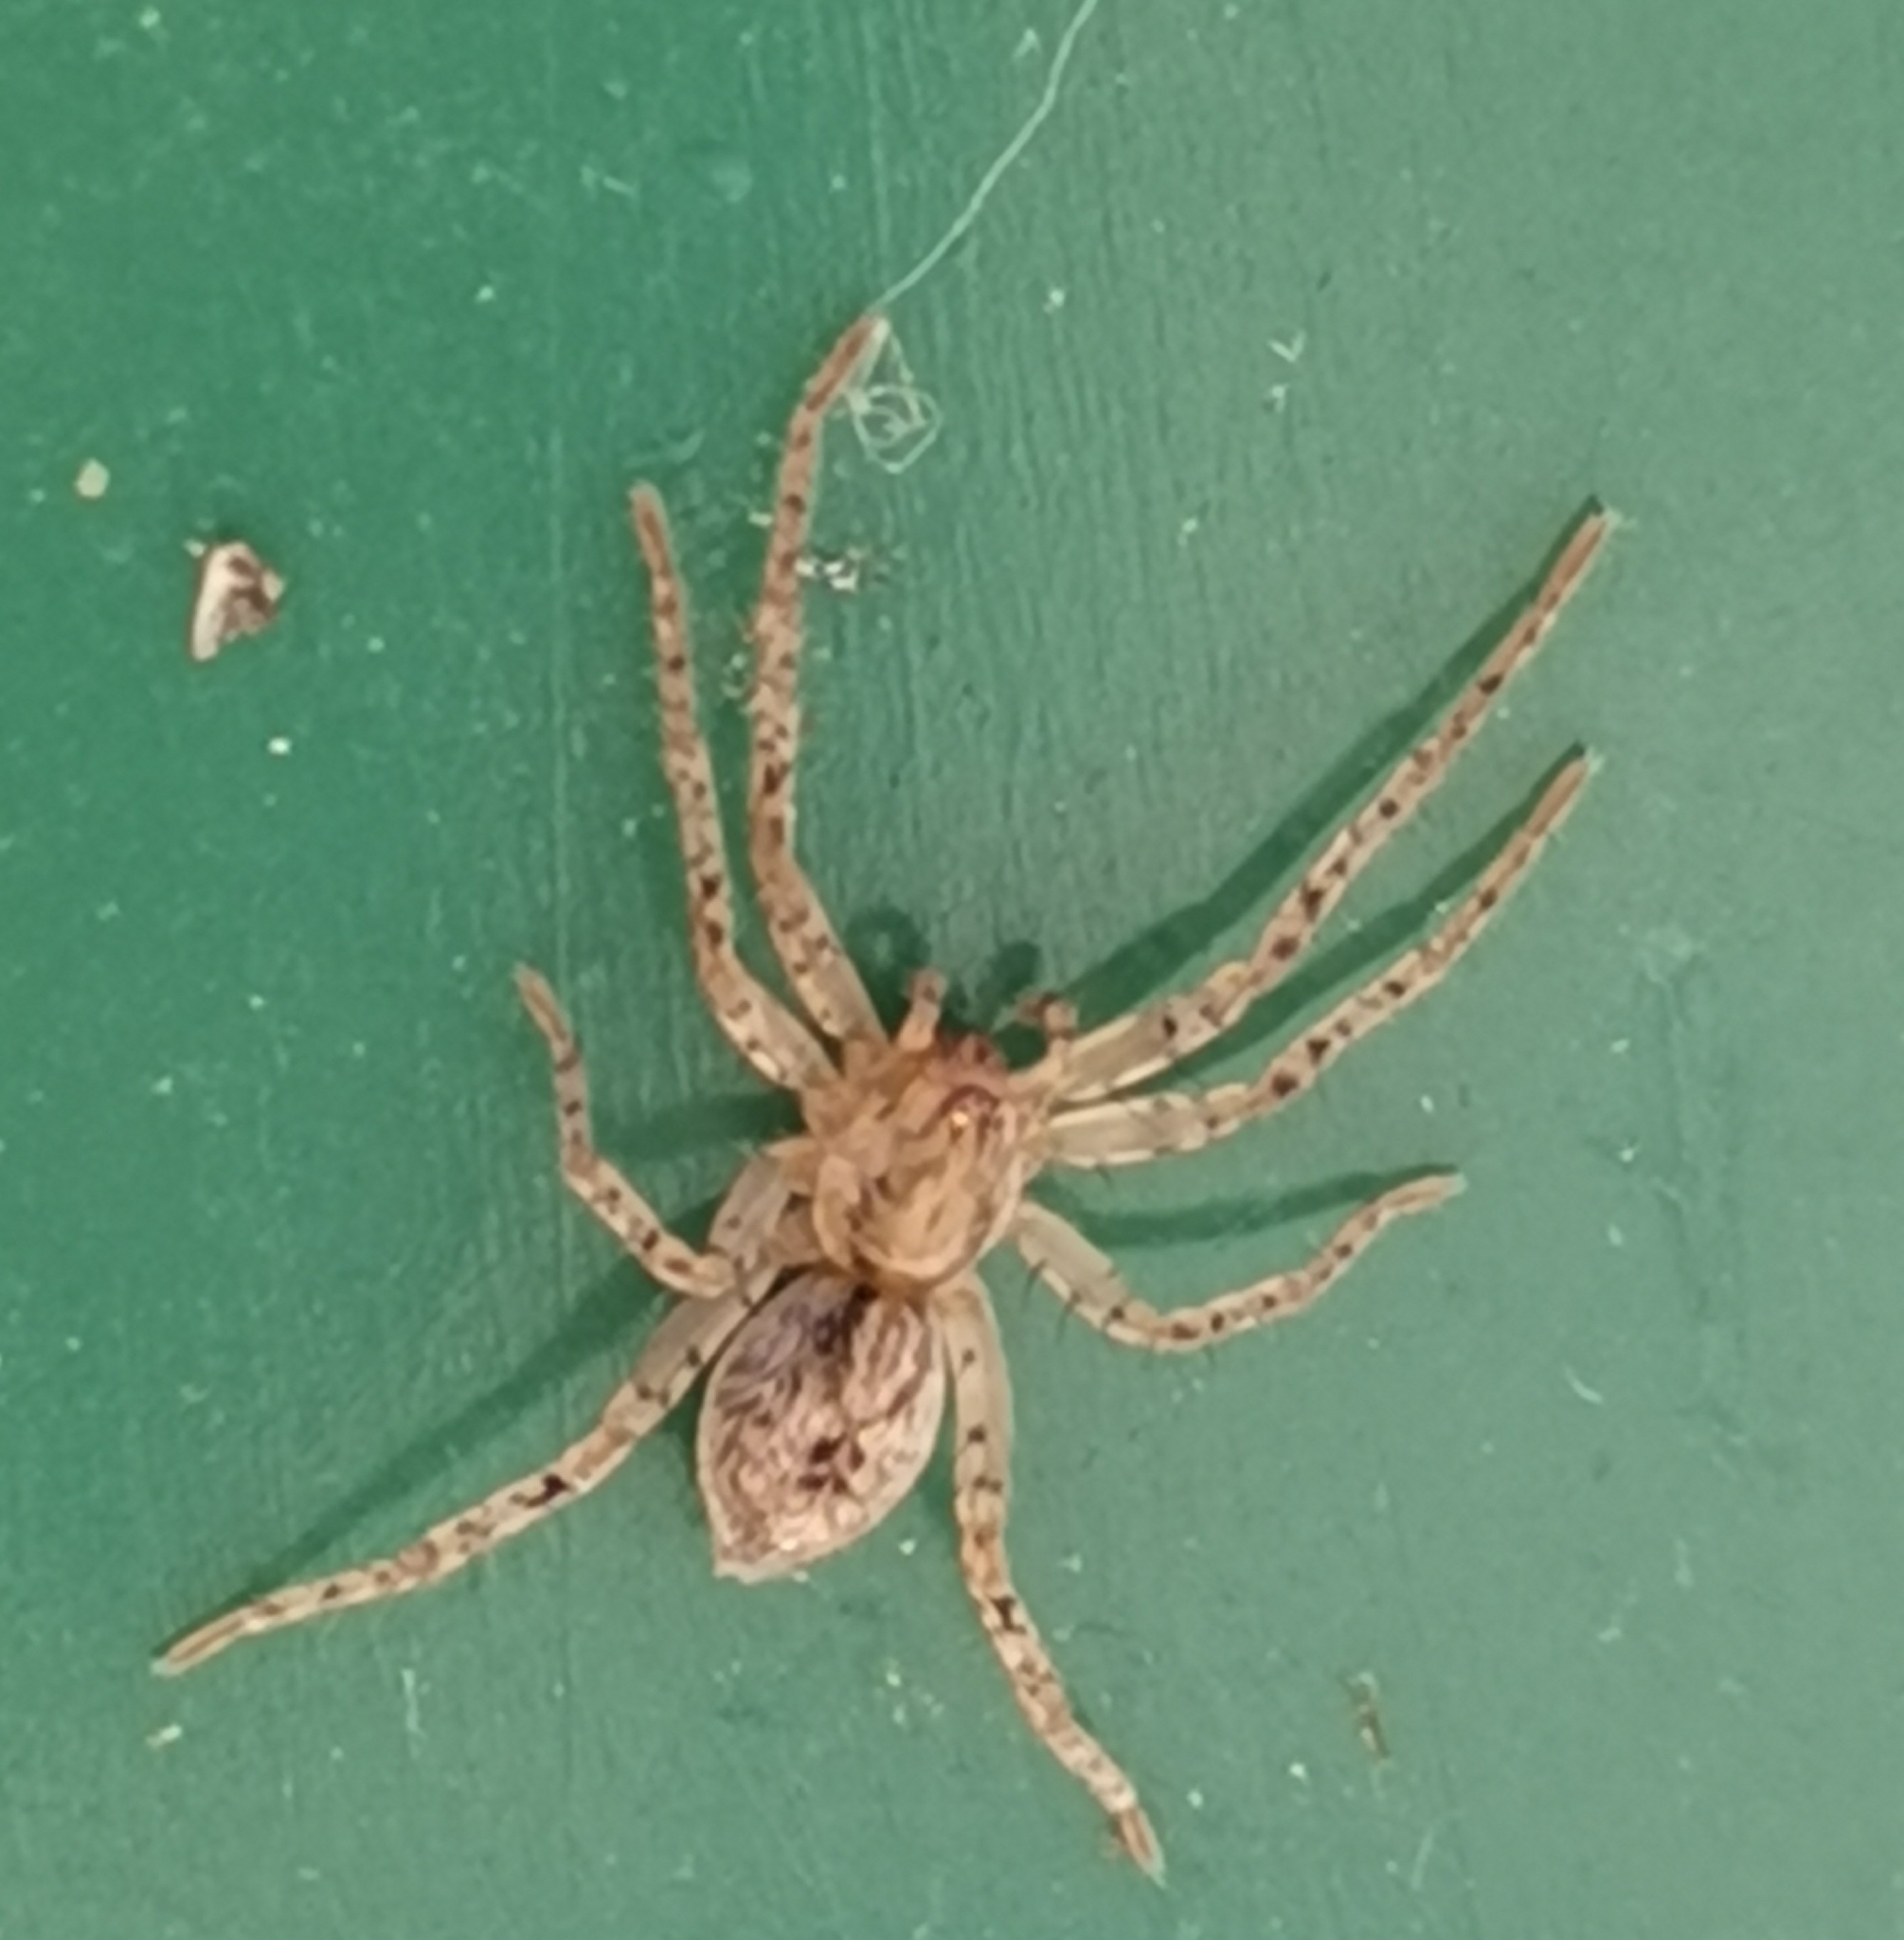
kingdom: Animalia
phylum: Arthropoda
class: Arachnida
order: Araneae
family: Anyphaenidae
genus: Anyphaena
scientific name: Anyphaena accentuata
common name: Buzzing spider
